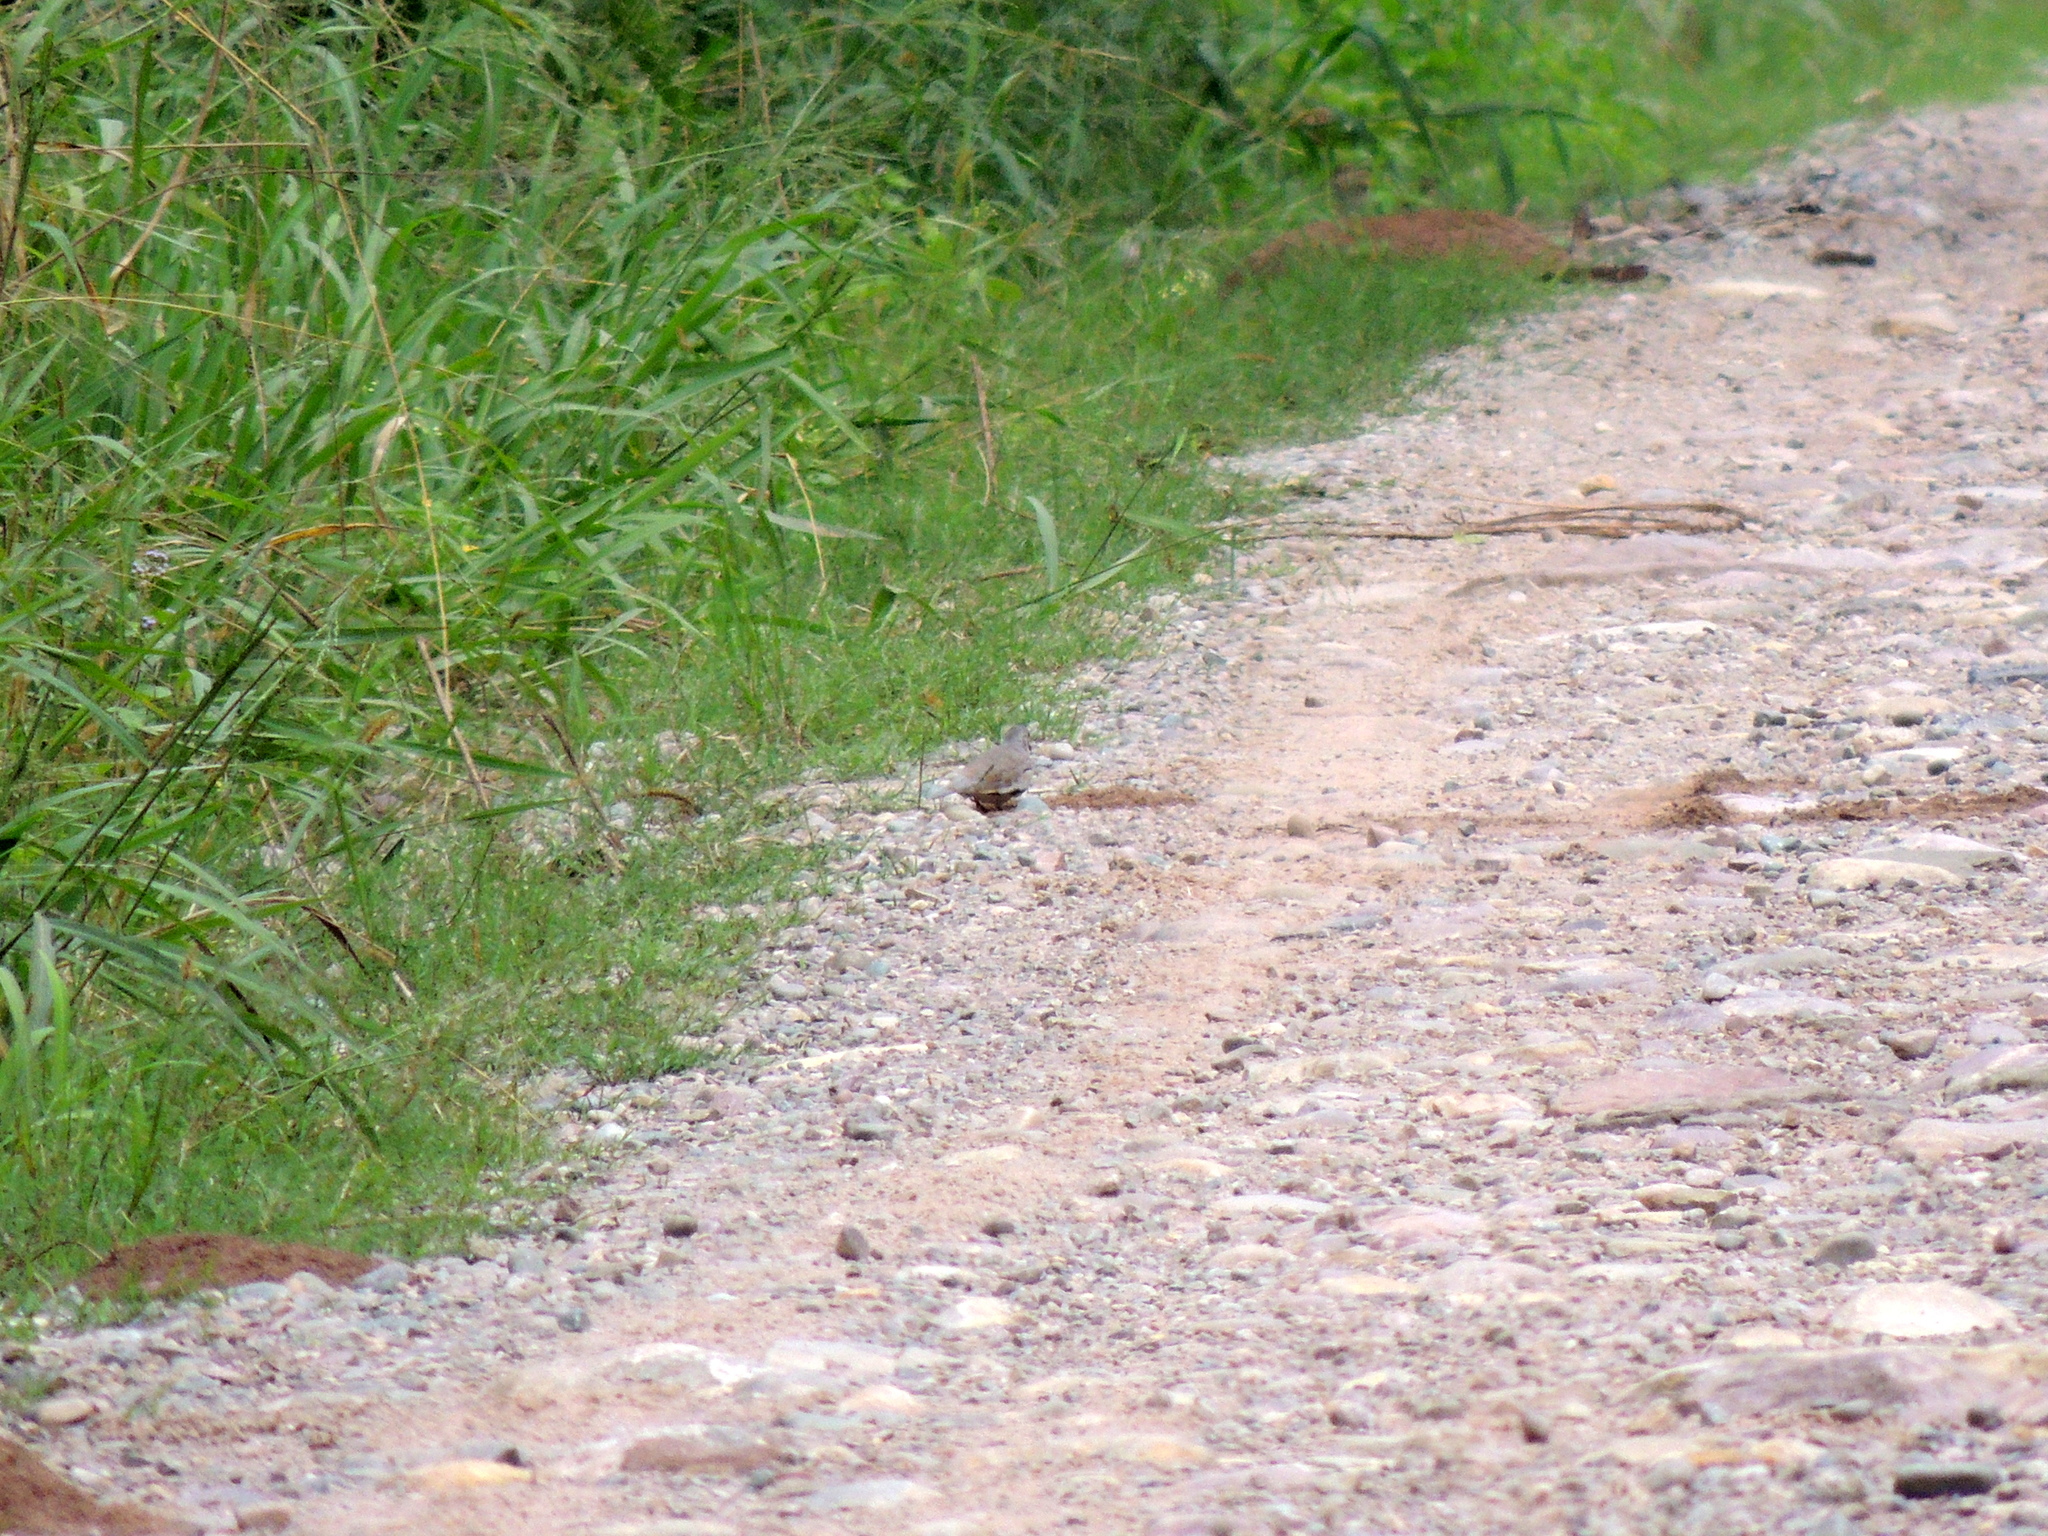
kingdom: Animalia
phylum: Chordata
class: Aves
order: Columbiformes
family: Columbidae
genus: Columbina
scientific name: Columbina picui
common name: Picui ground dove
